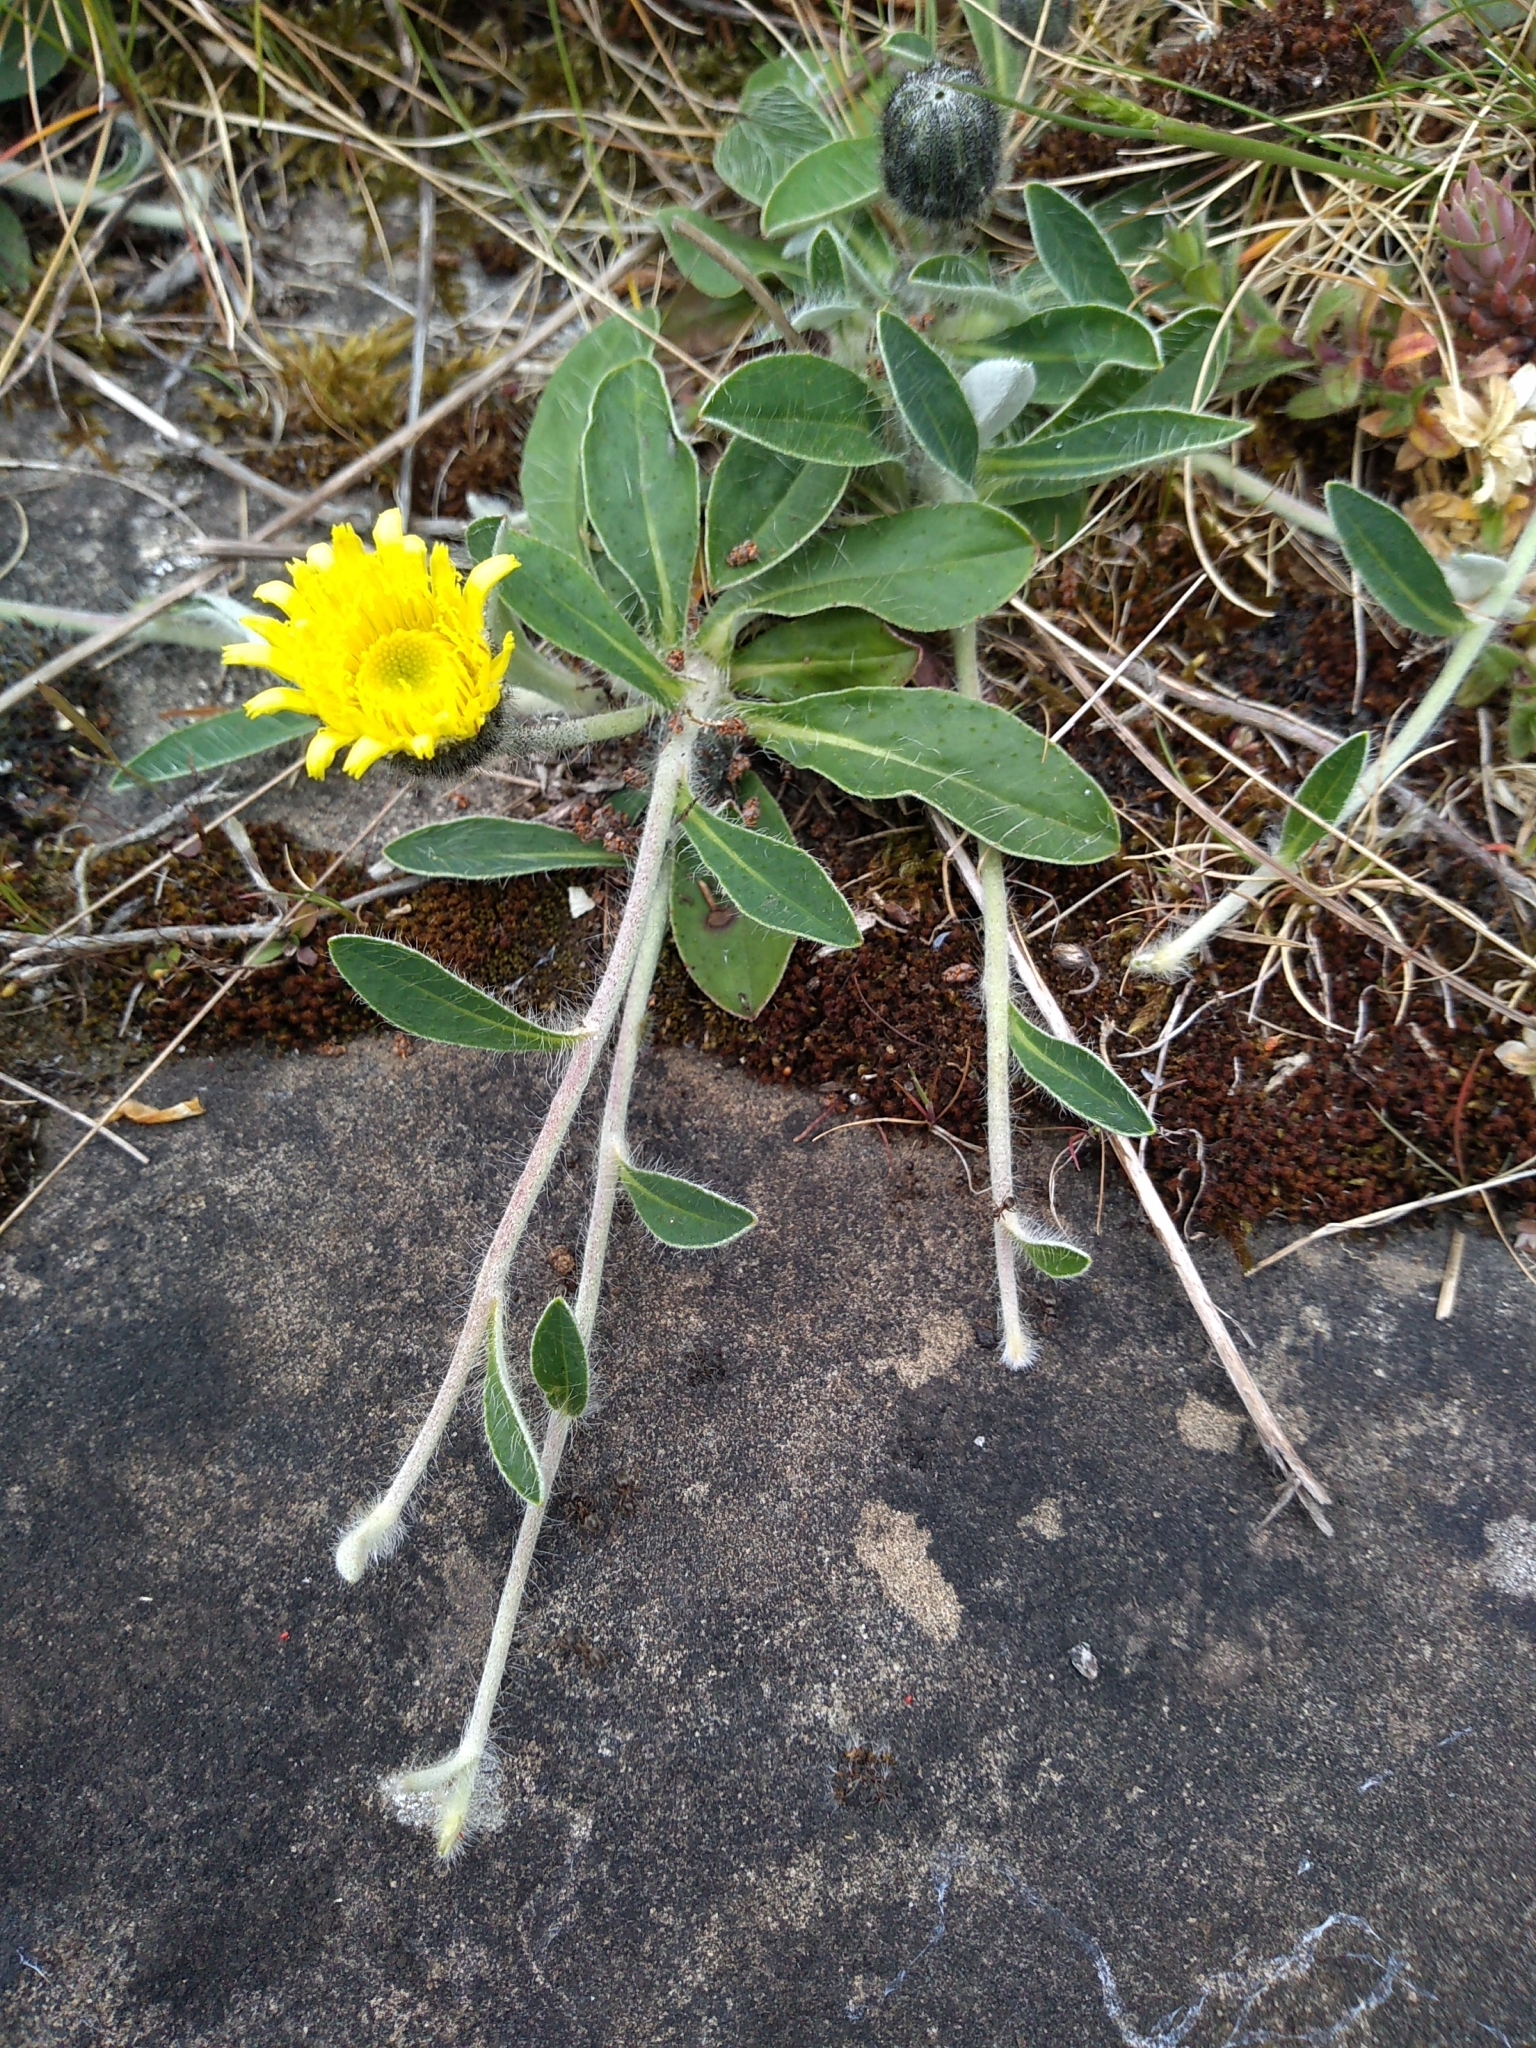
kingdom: Plantae
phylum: Tracheophyta
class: Magnoliopsida
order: Asterales
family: Asteraceae
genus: Pilosella
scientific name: Pilosella officinarum
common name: Mouse-ear hawkweed
